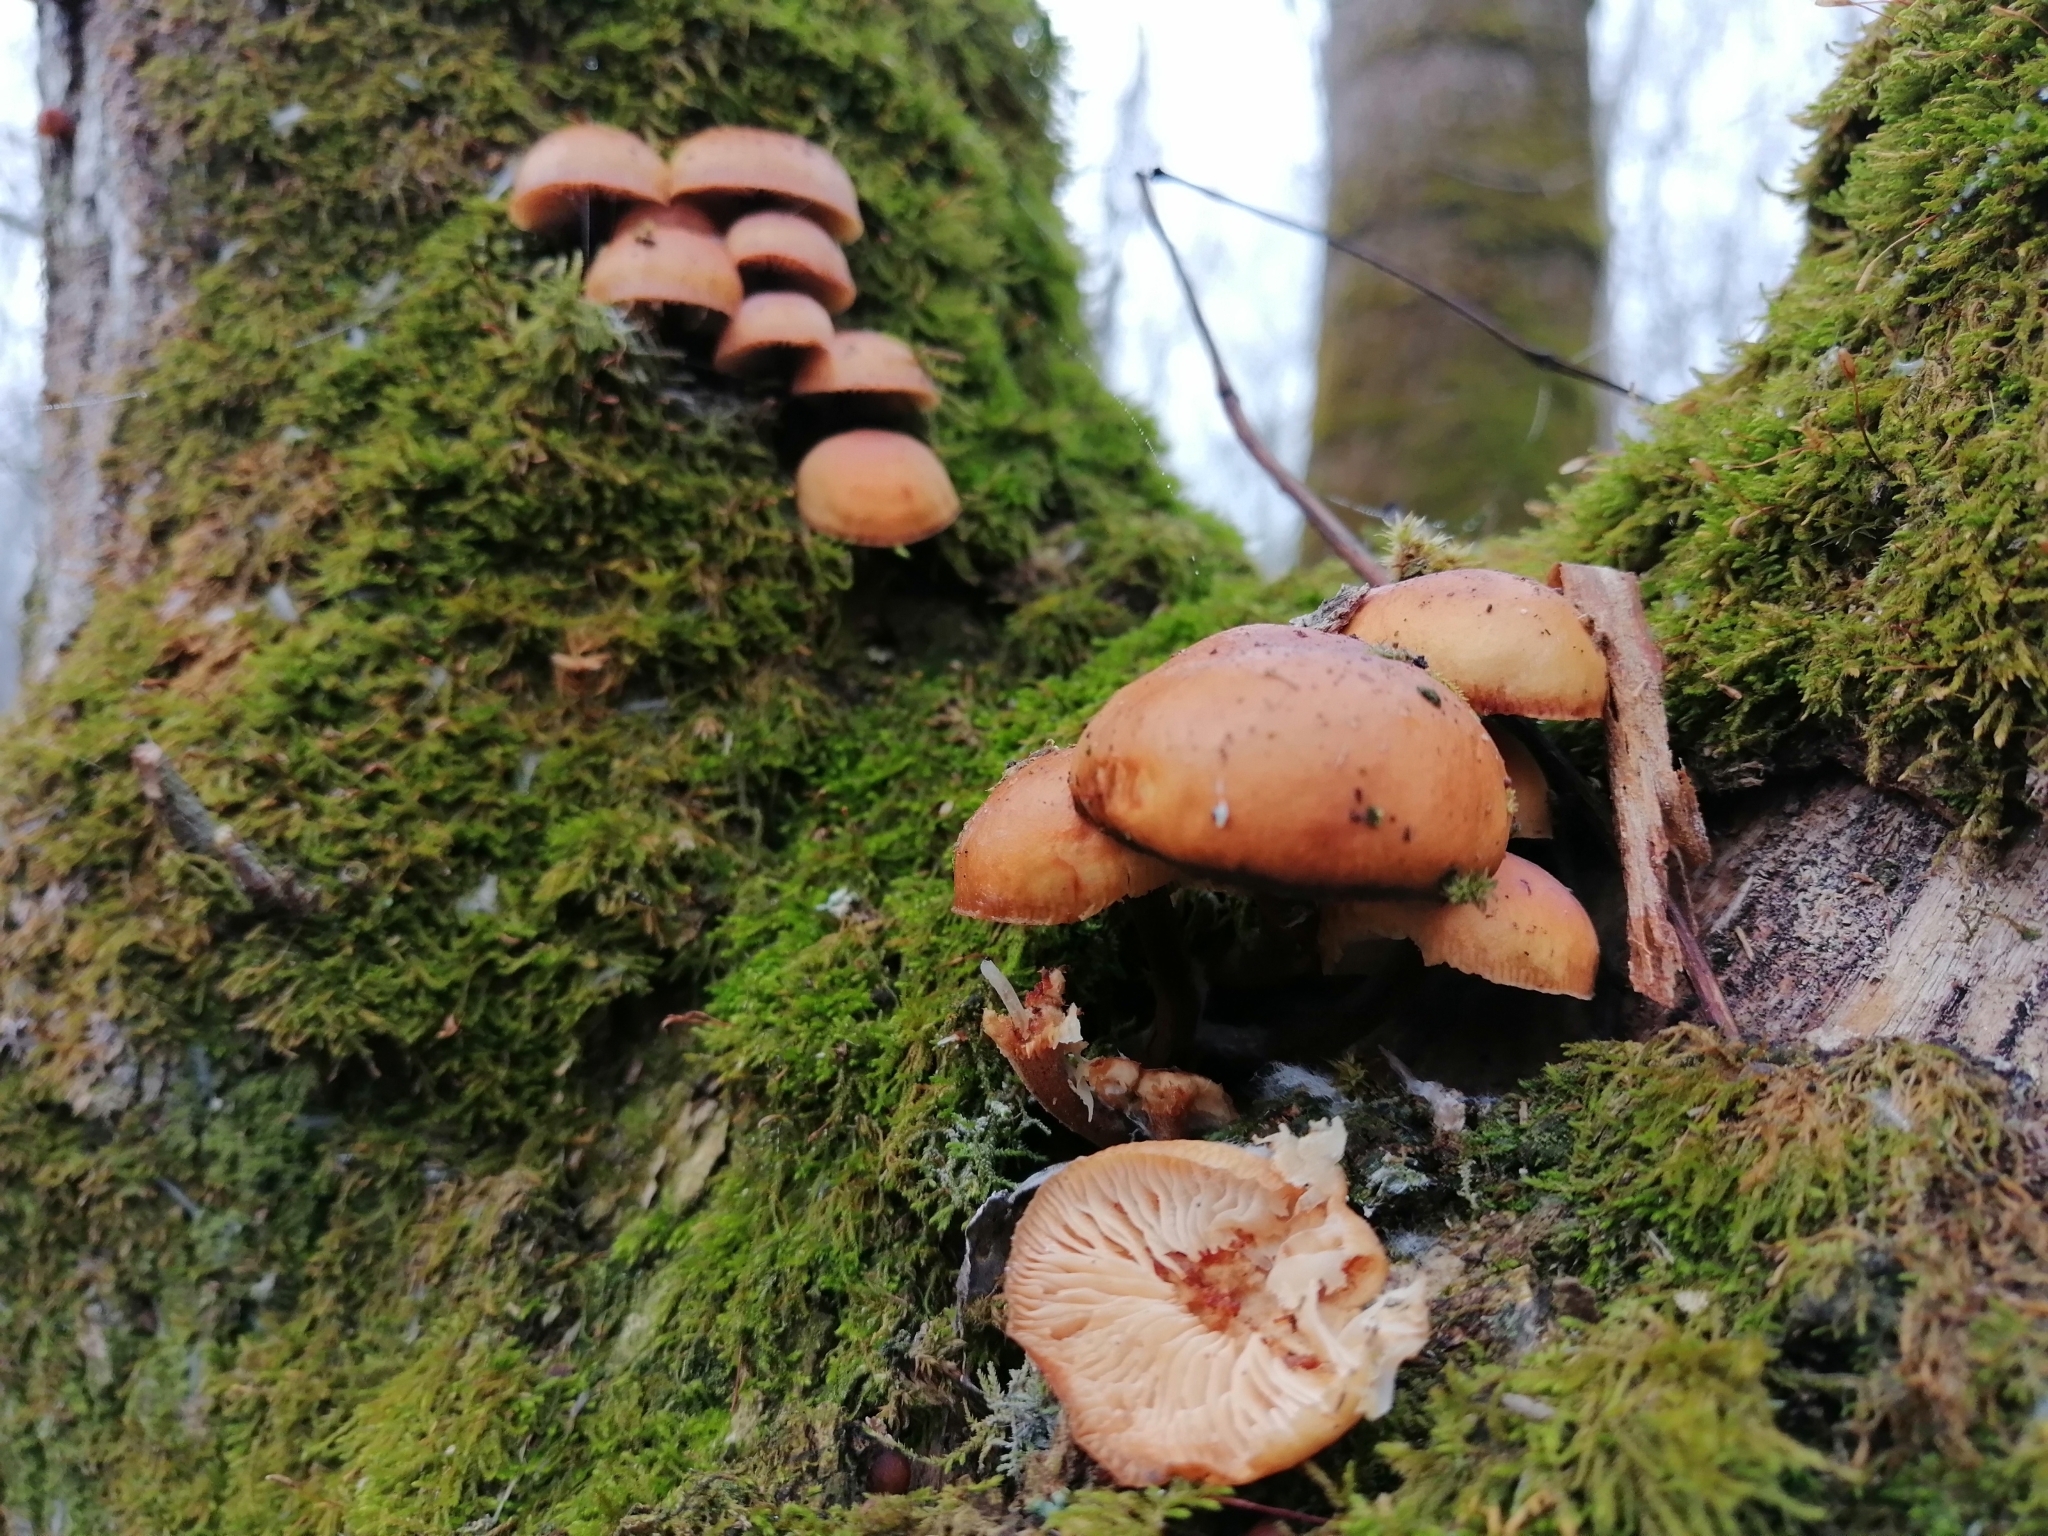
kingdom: Fungi
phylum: Basidiomycota
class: Agaricomycetes
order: Agaricales
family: Physalacriaceae
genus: Flammulina
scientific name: Flammulina
